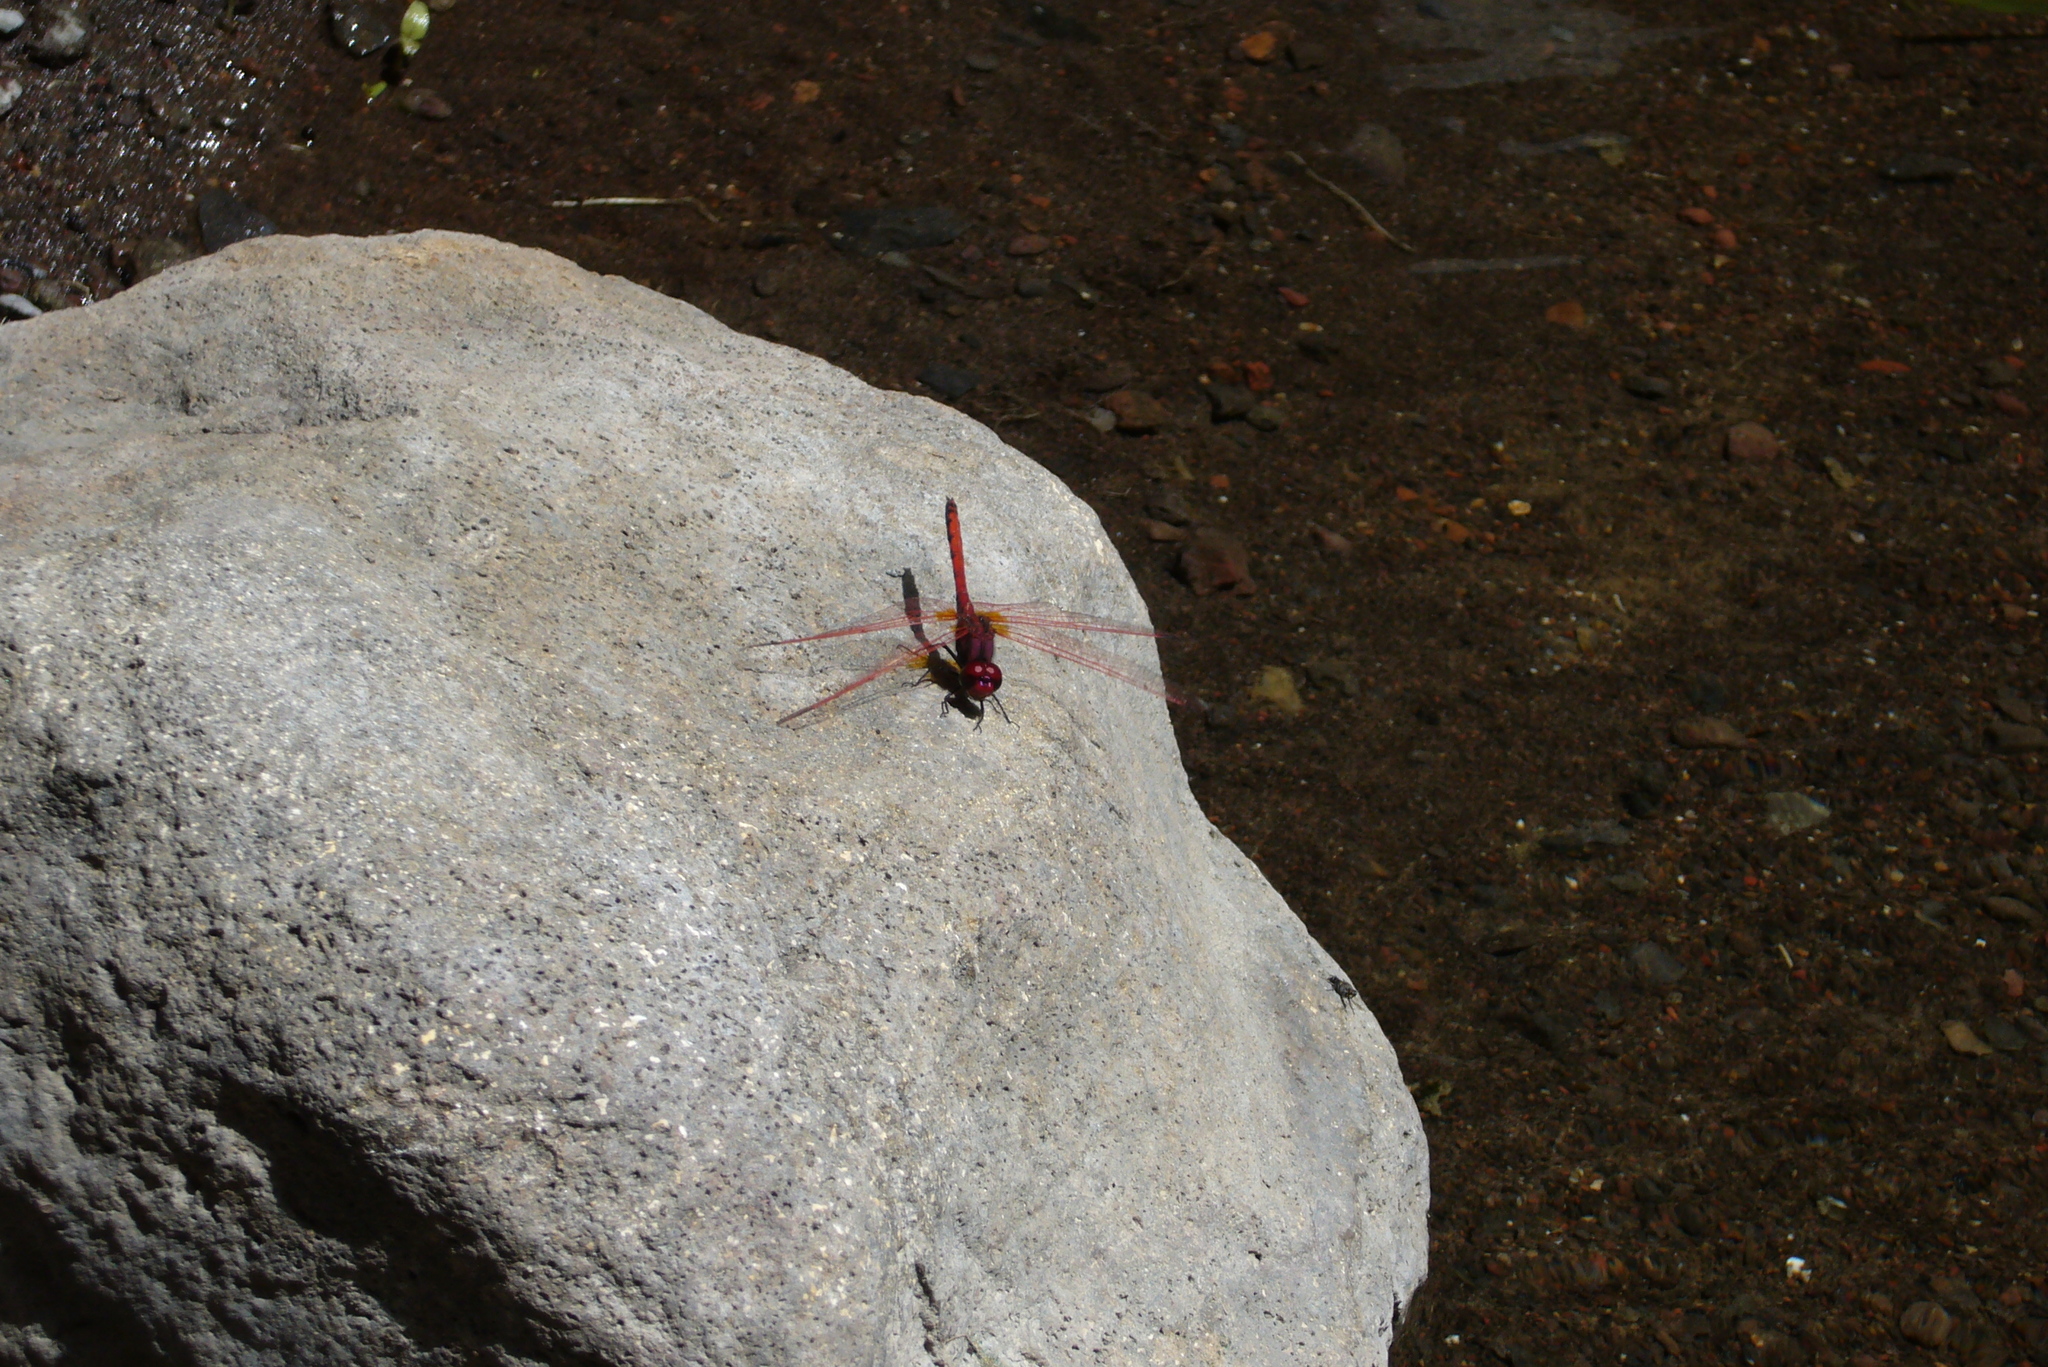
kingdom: Animalia
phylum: Arthropoda
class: Insecta
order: Odonata
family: Libellulidae
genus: Trithemis
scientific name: Trithemis arteriosa
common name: Red-veined dropwing
